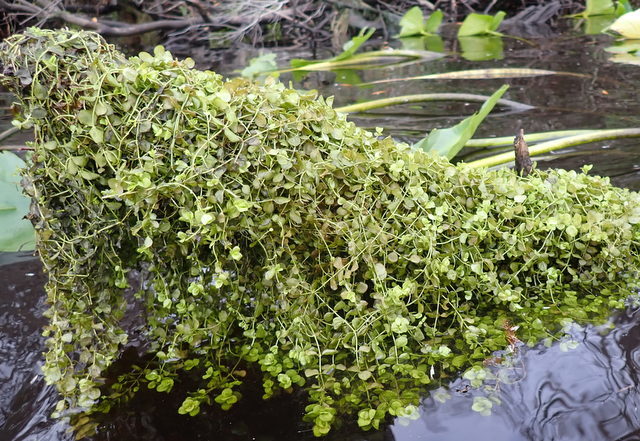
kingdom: Plantae
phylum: Tracheophyta
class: Magnoliopsida
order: Lamiales
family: Linderniaceae
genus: Micranthemum
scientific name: Micranthemum umbrosum
